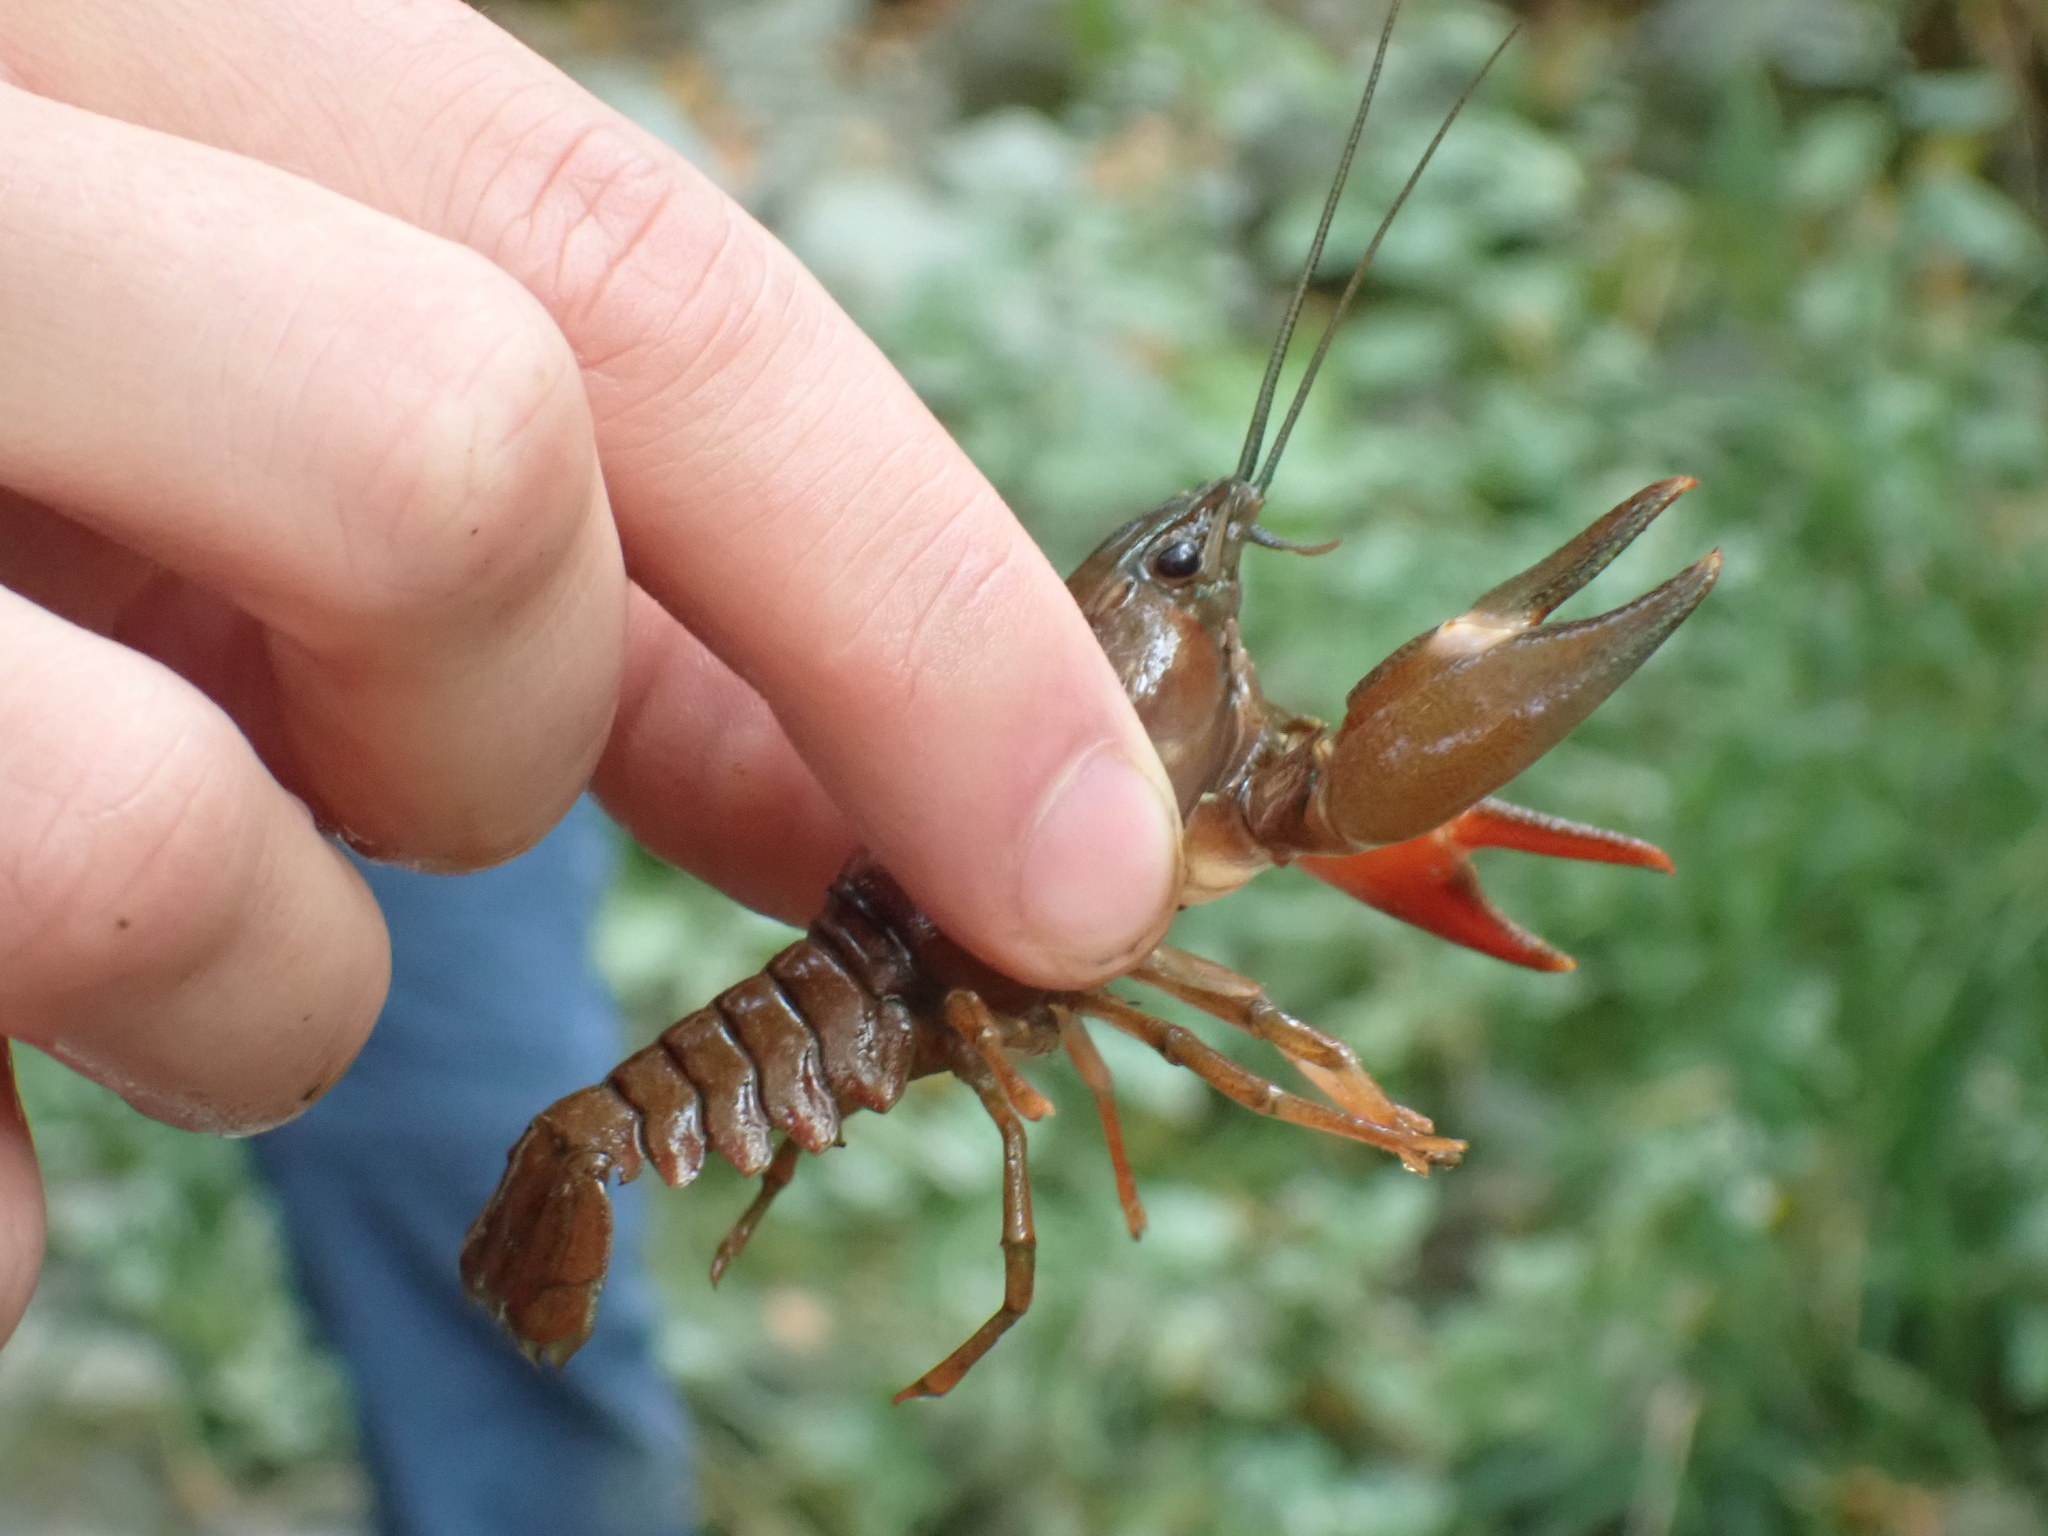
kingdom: Animalia
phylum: Arthropoda
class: Malacostraca
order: Decapoda
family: Astacidae
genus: Pacifastacus
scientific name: Pacifastacus leniusculus
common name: Signal crayfish
